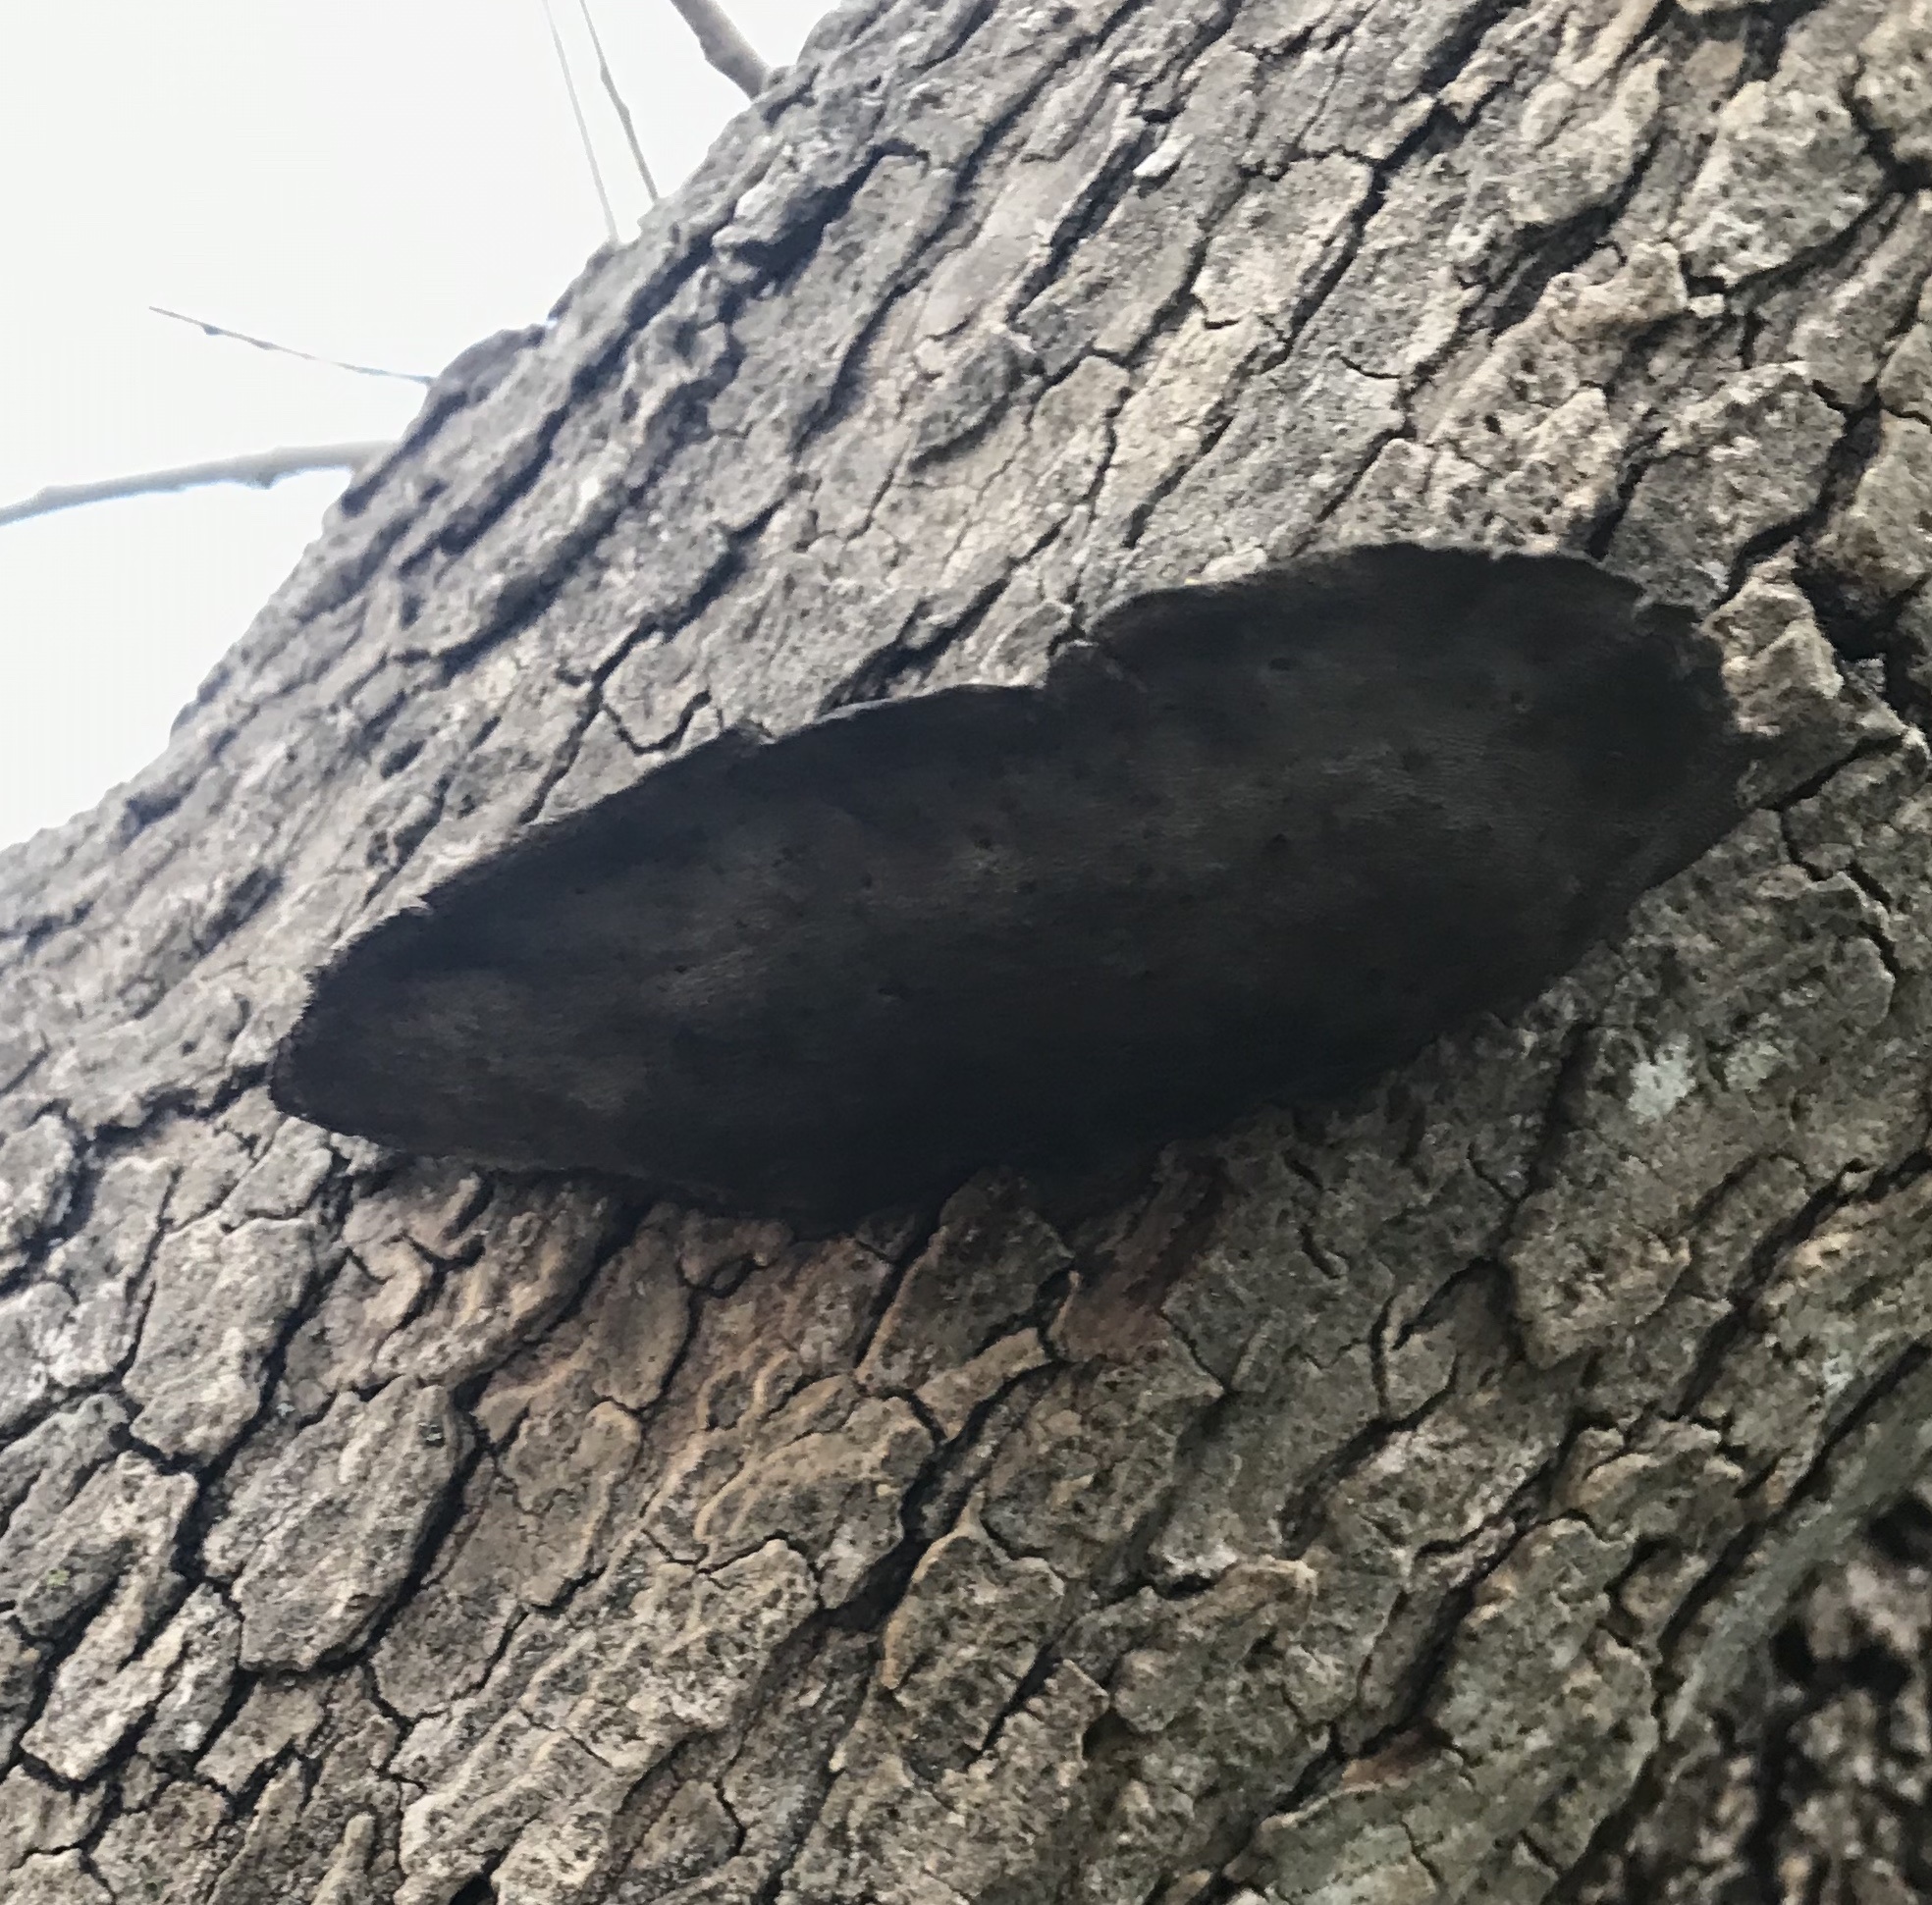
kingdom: Fungi
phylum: Basidiomycota
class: Agaricomycetes
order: Polyporales
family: Cerrenaceae
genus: Cerrena
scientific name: Cerrena hydnoides
